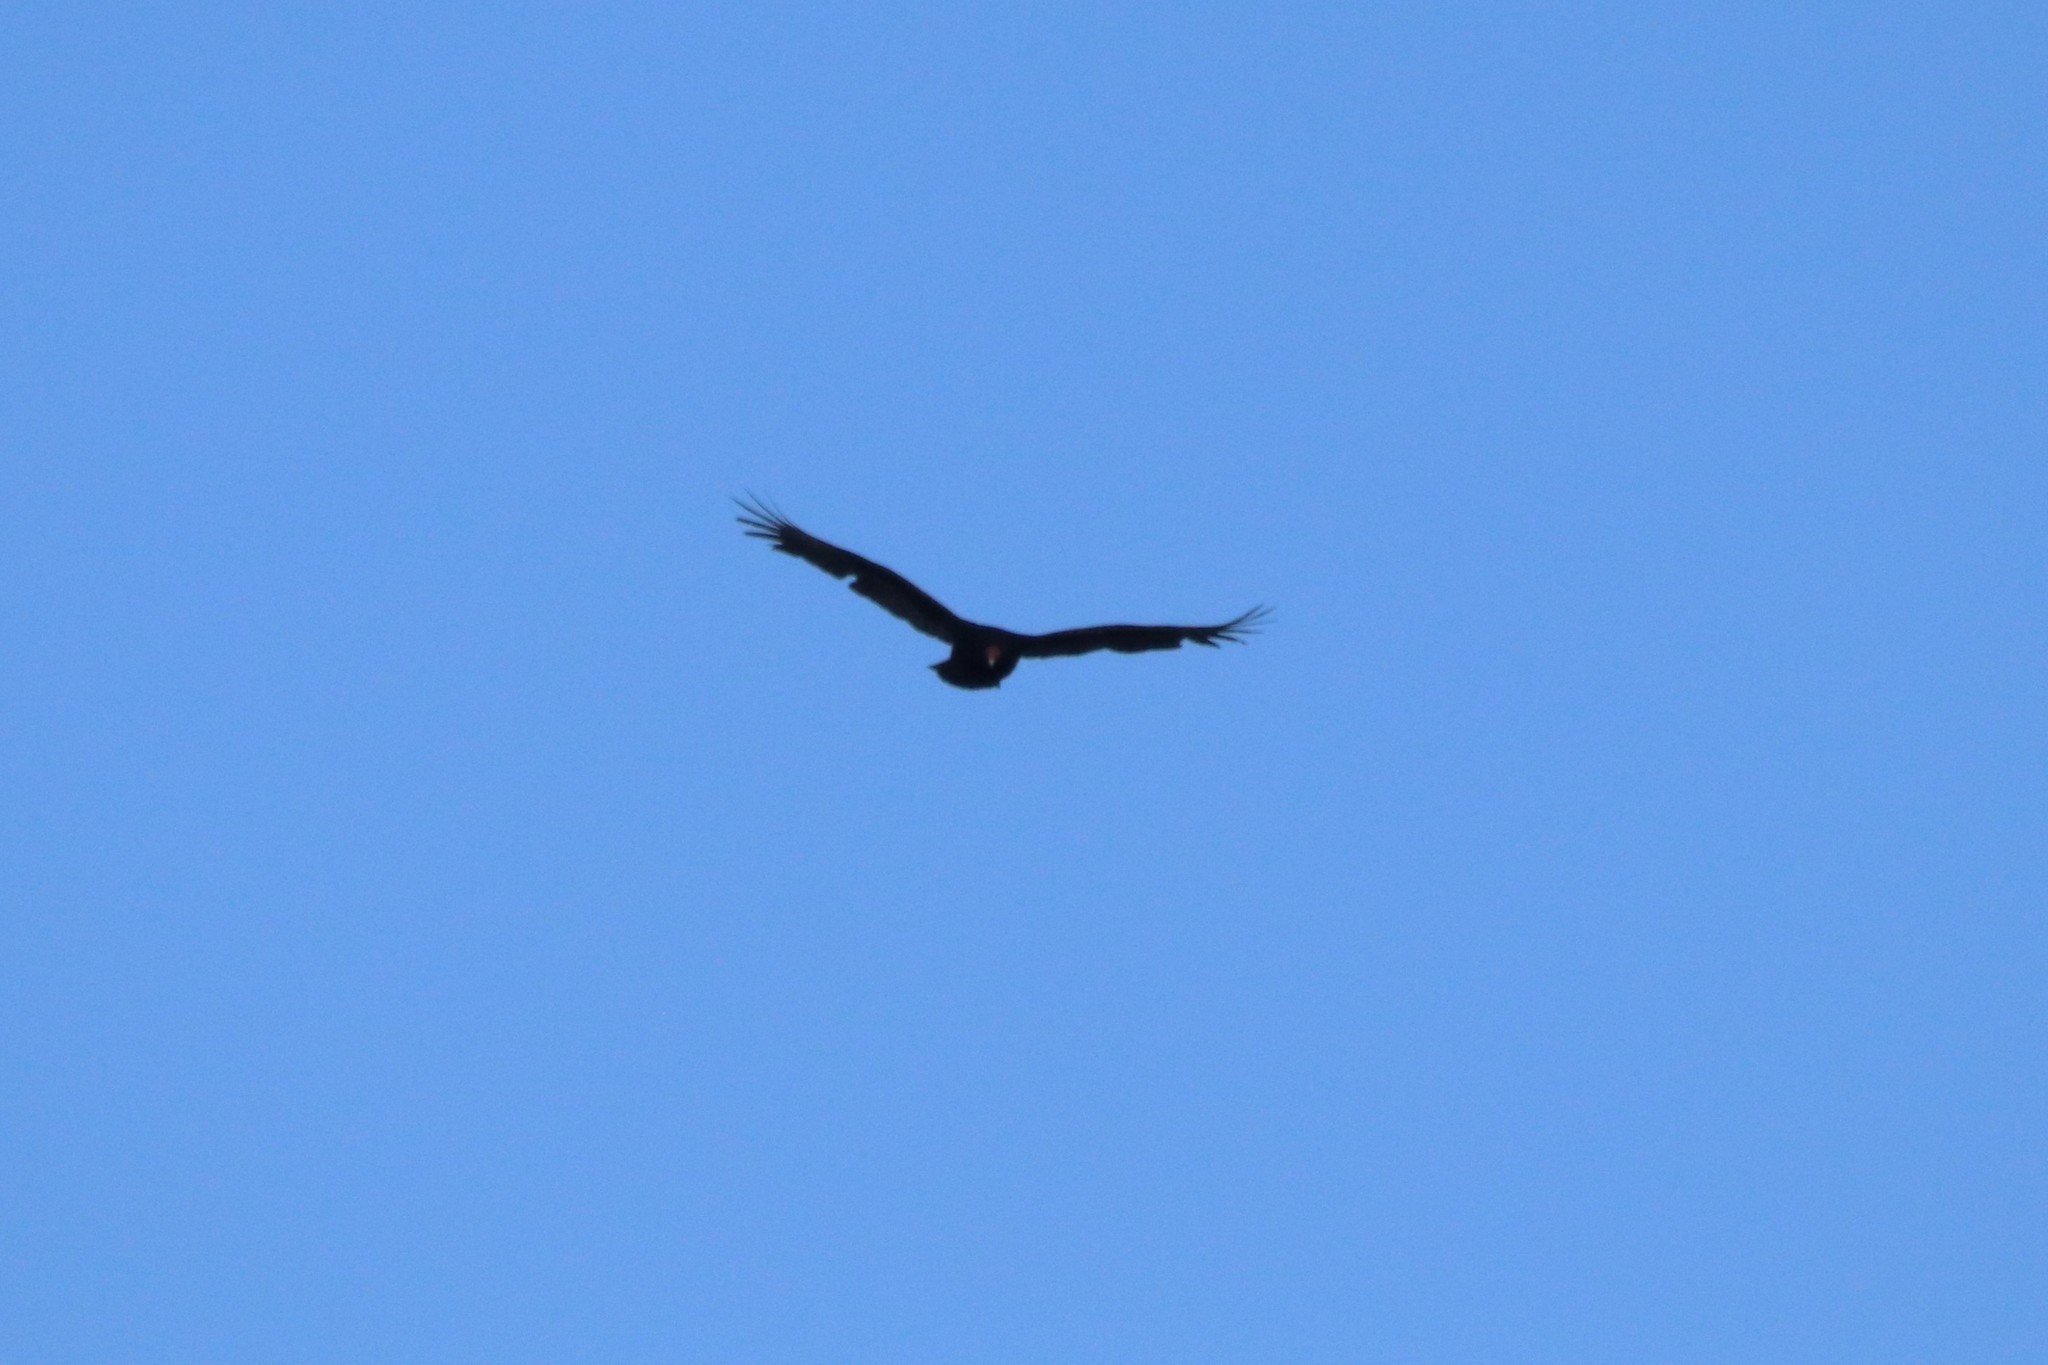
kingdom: Animalia
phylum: Chordata
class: Aves
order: Accipitriformes
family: Cathartidae
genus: Cathartes
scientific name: Cathartes aura
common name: Turkey vulture
